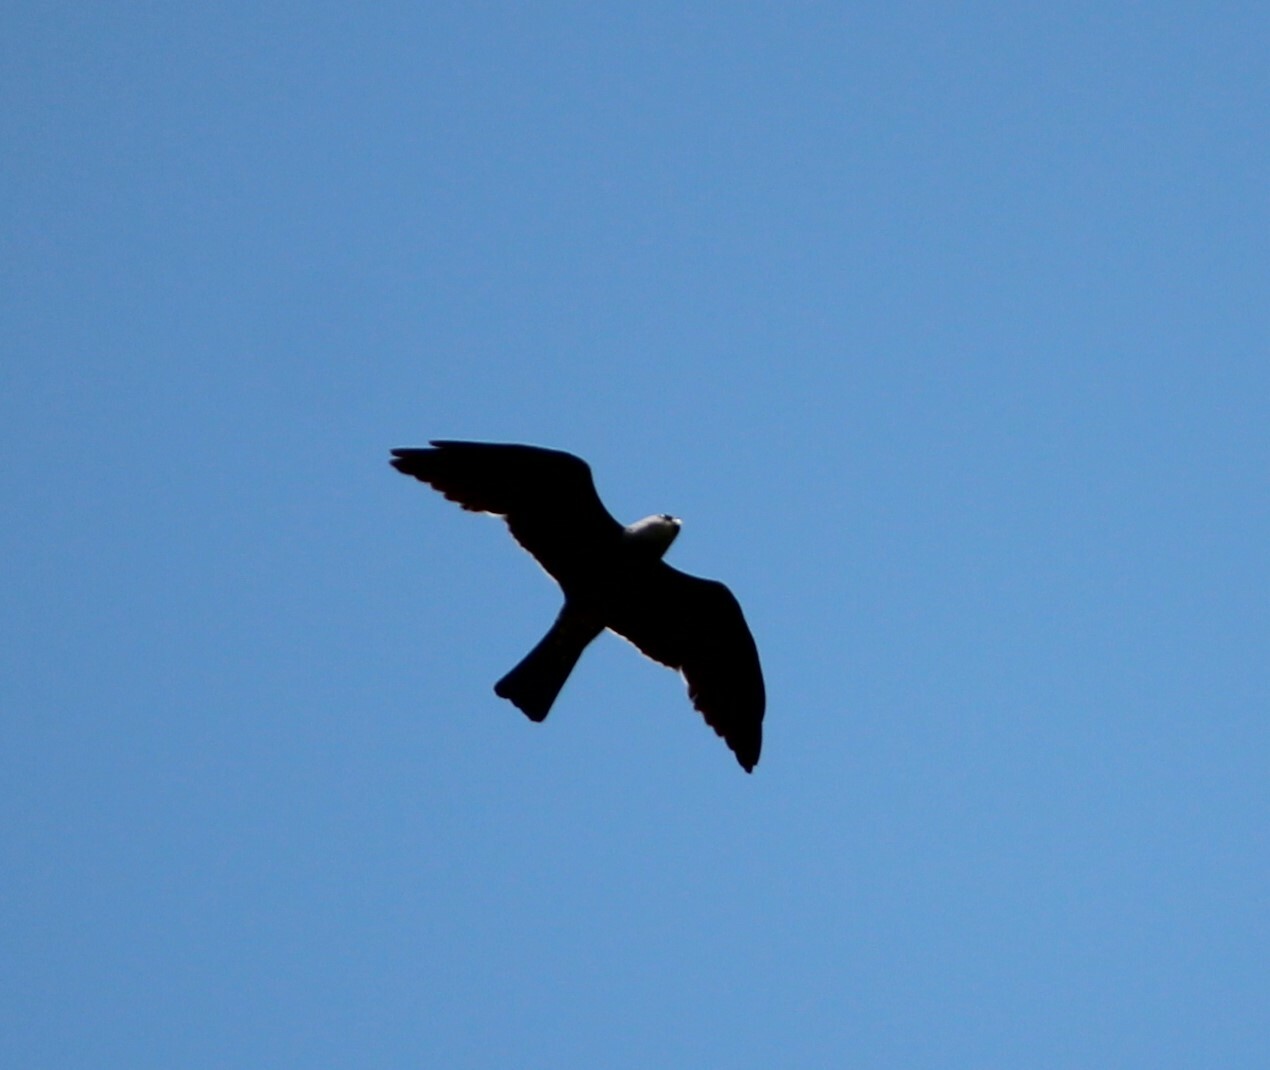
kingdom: Animalia
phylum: Chordata
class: Aves
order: Accipitriformes
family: Accipitridae
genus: Ictinia
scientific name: Ictinia mississippiensis
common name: Mississippi kite
